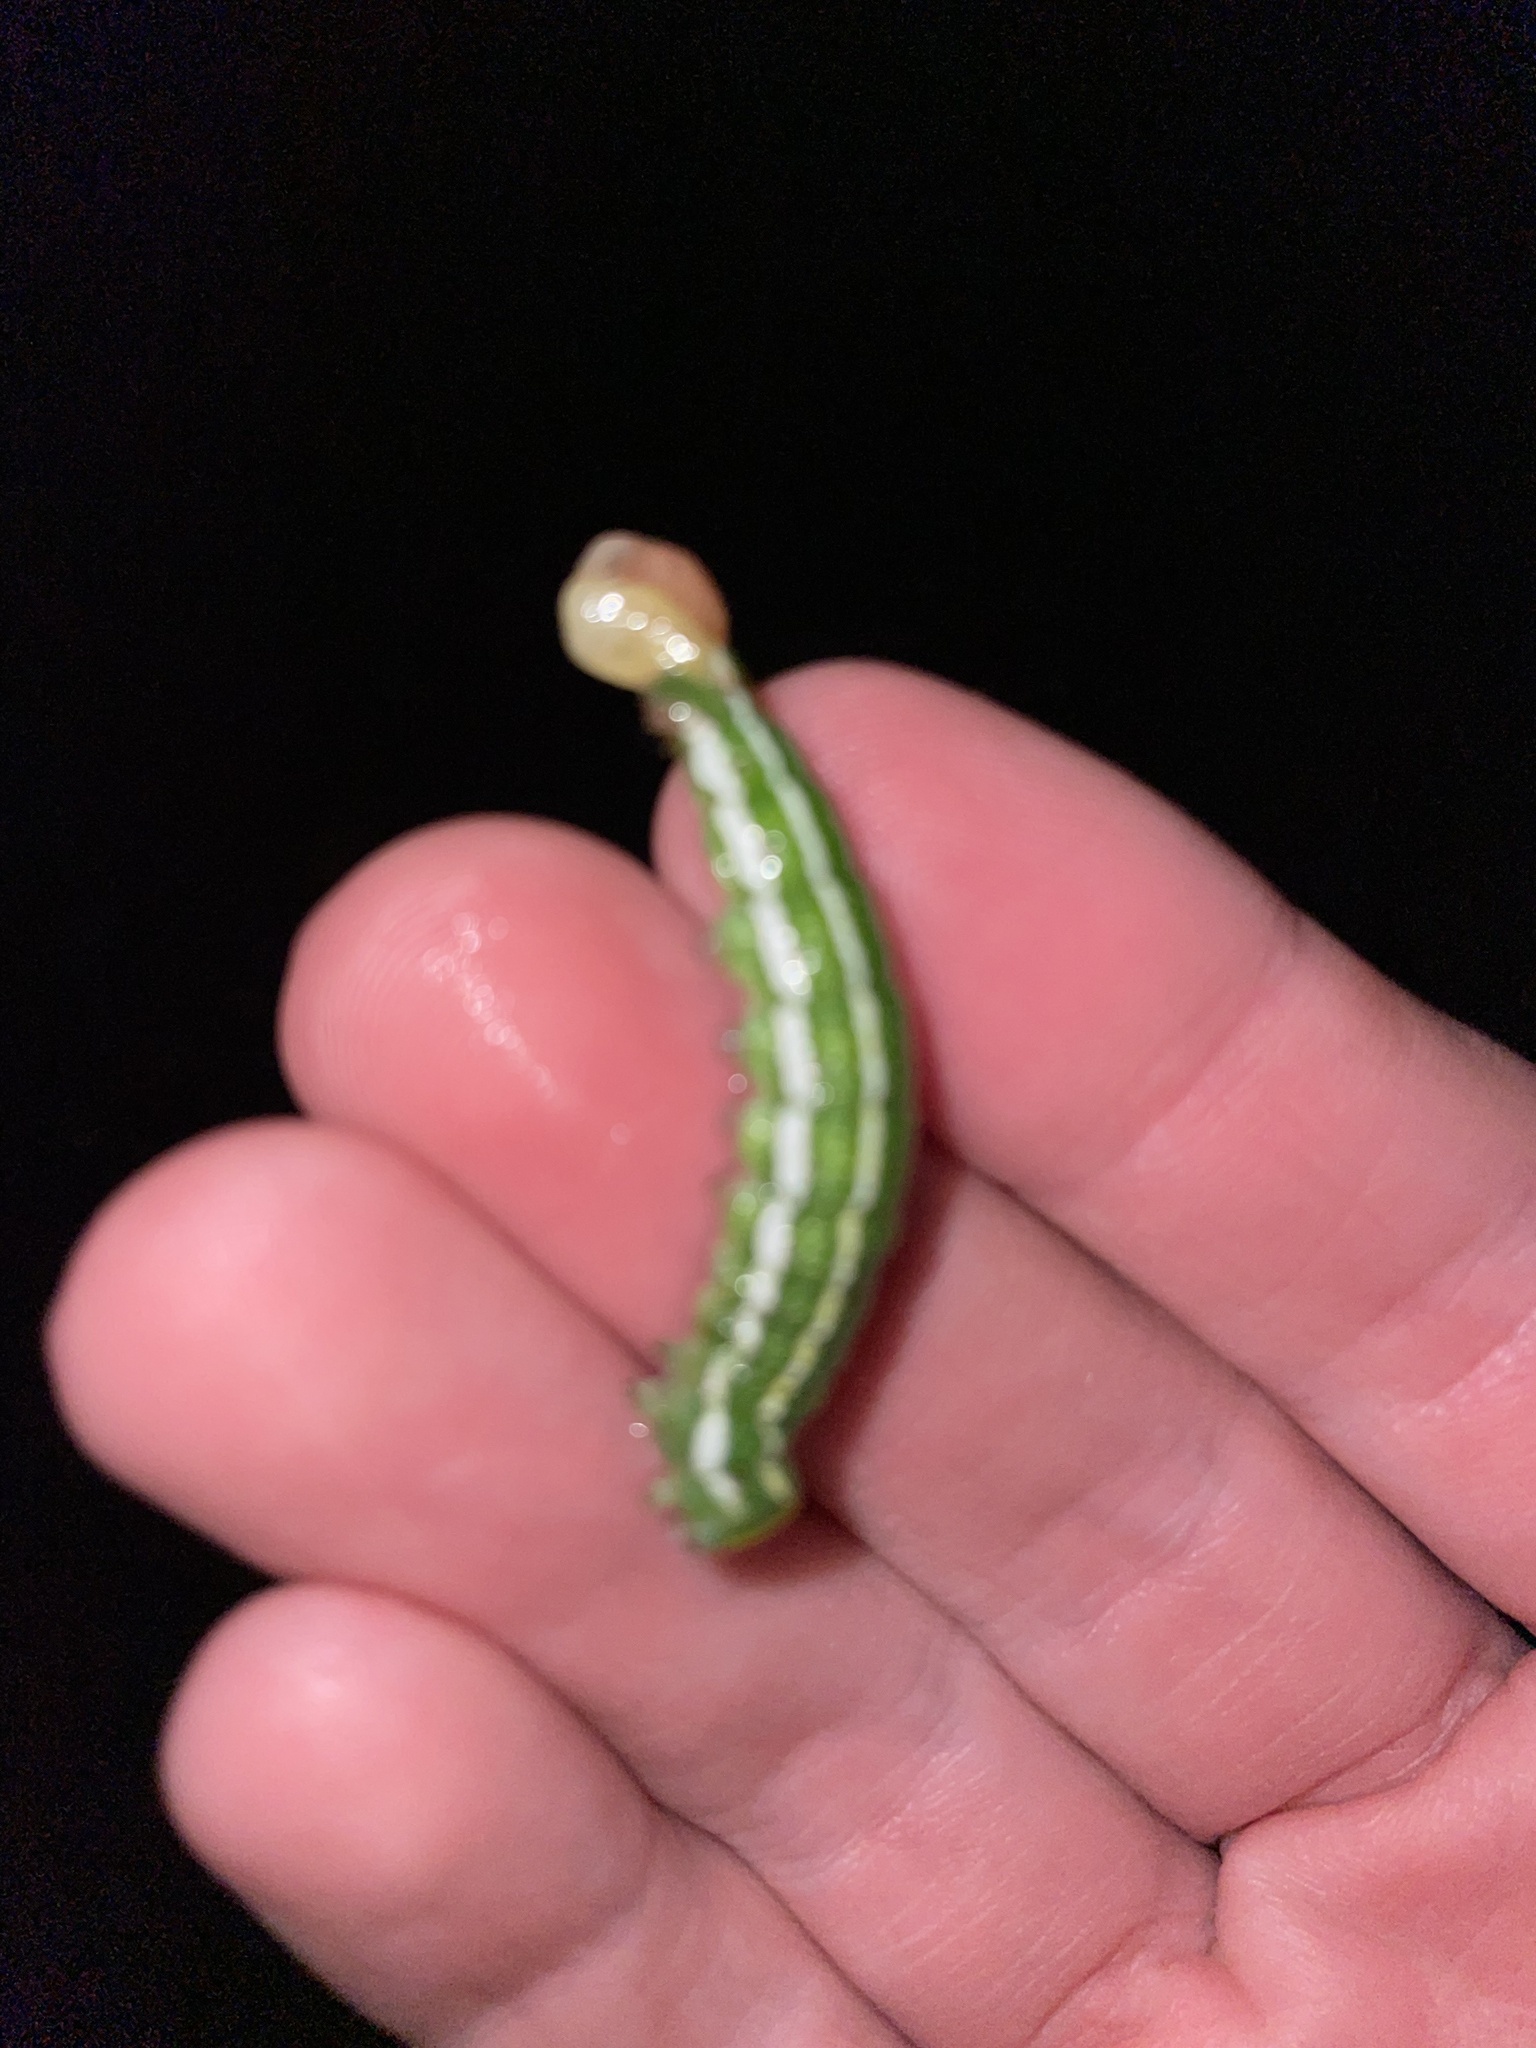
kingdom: Animalia
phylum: Arthropoda
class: Insecta
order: Lepidoptera
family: Sphingidae
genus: Lapara
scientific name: Lapara bombycoides
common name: Northern pine sphinx
